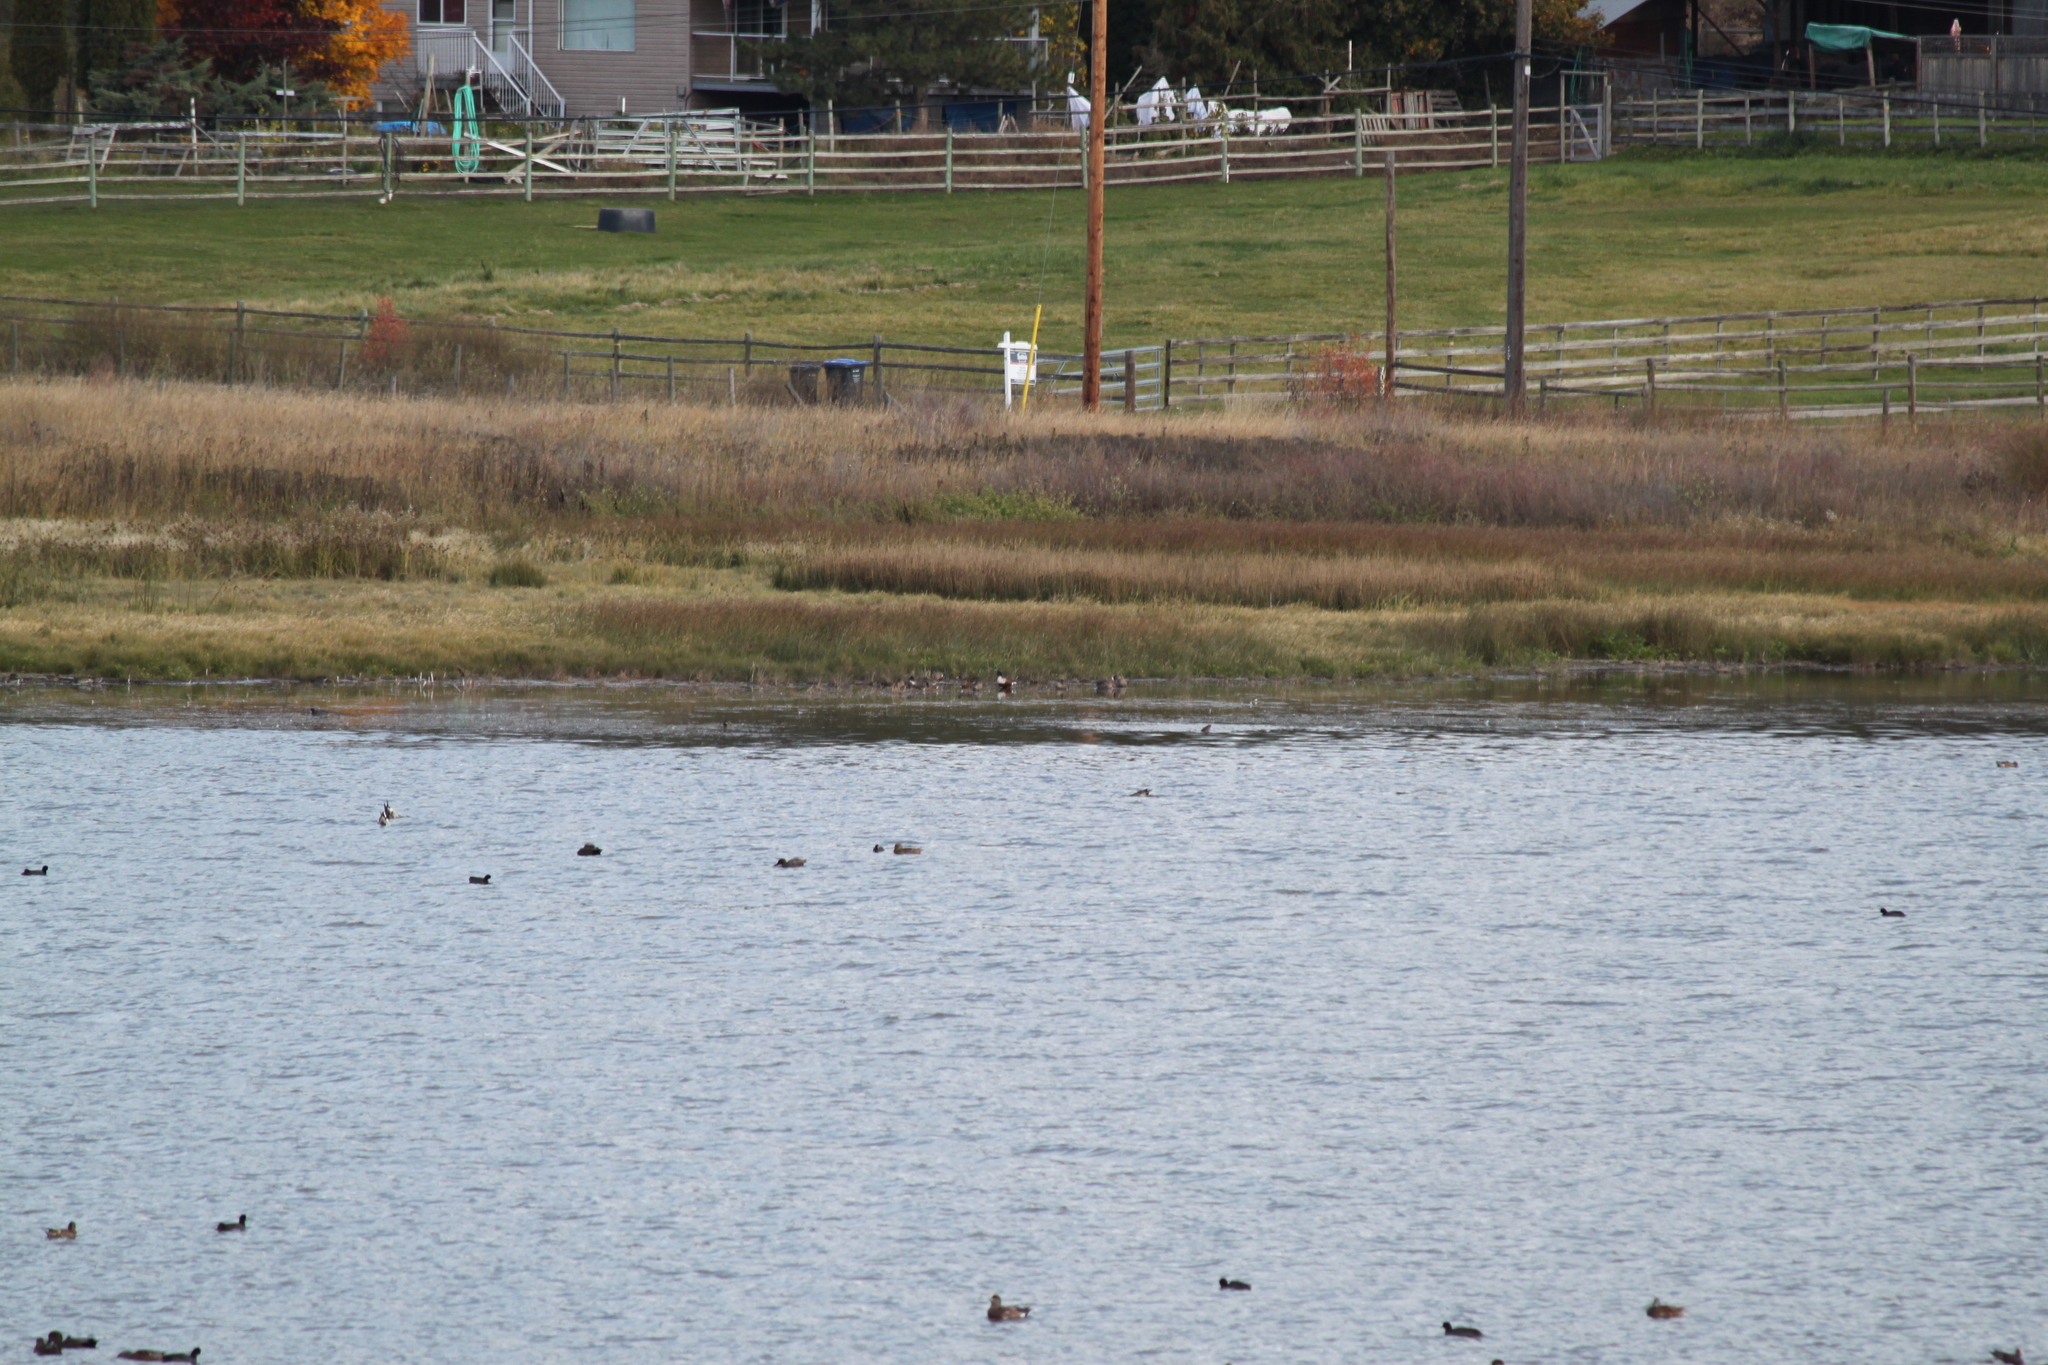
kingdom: Animalia
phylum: Chordata
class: Aves
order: Anseriformes
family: Anatidae
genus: Spatula
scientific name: Spatula clypeata
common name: Northern shoveler
